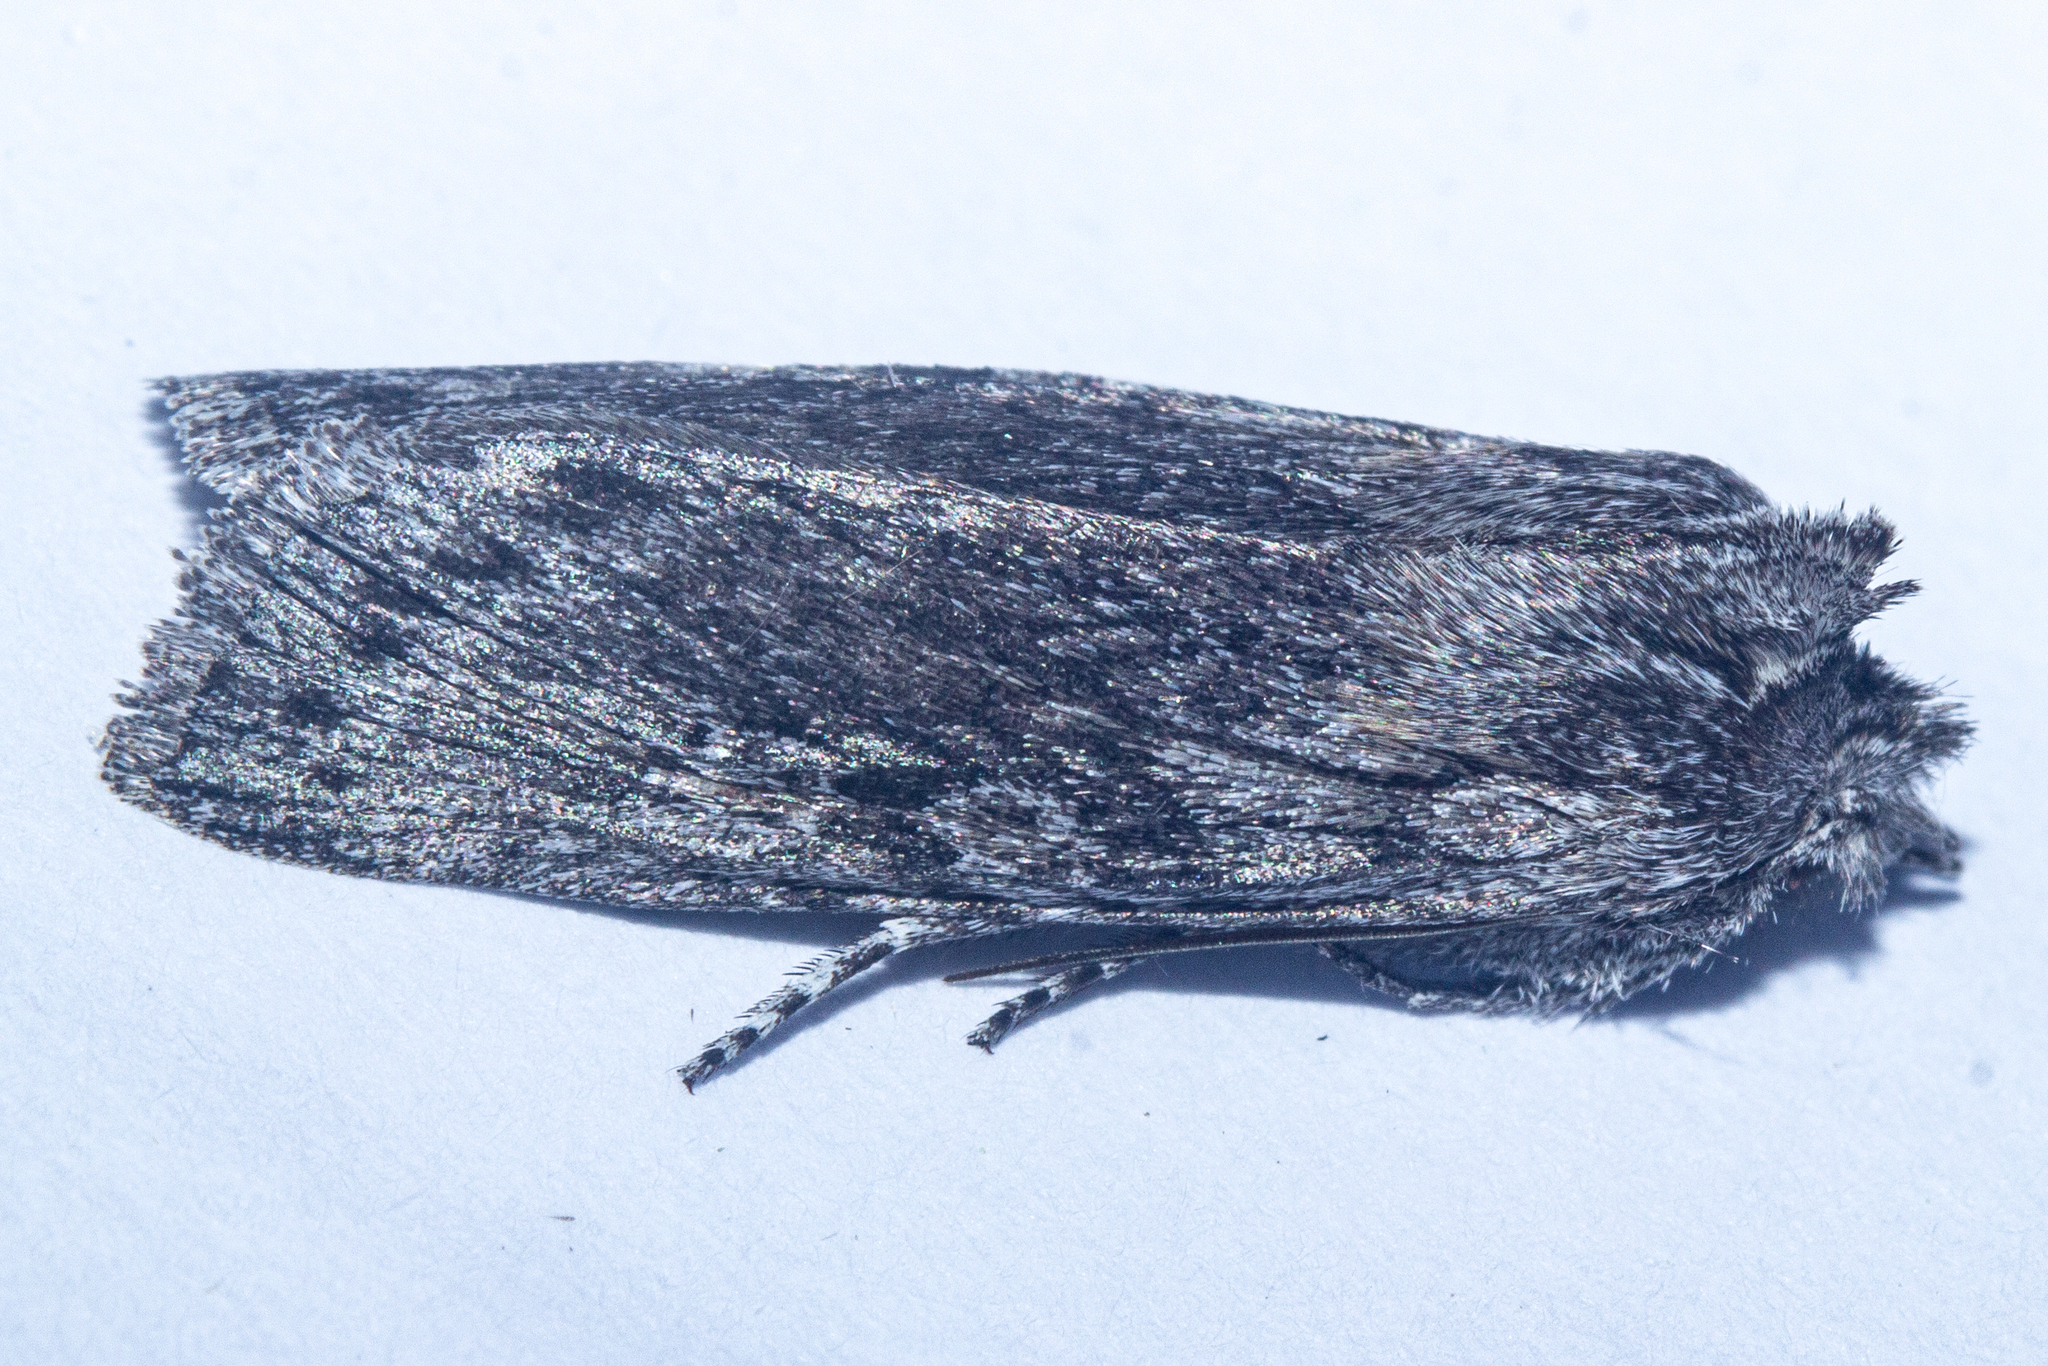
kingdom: Animalia
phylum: Arthropoda
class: Insecta
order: Lepidoptera
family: Noctuidae
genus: Physetica
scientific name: Physetica phricias
